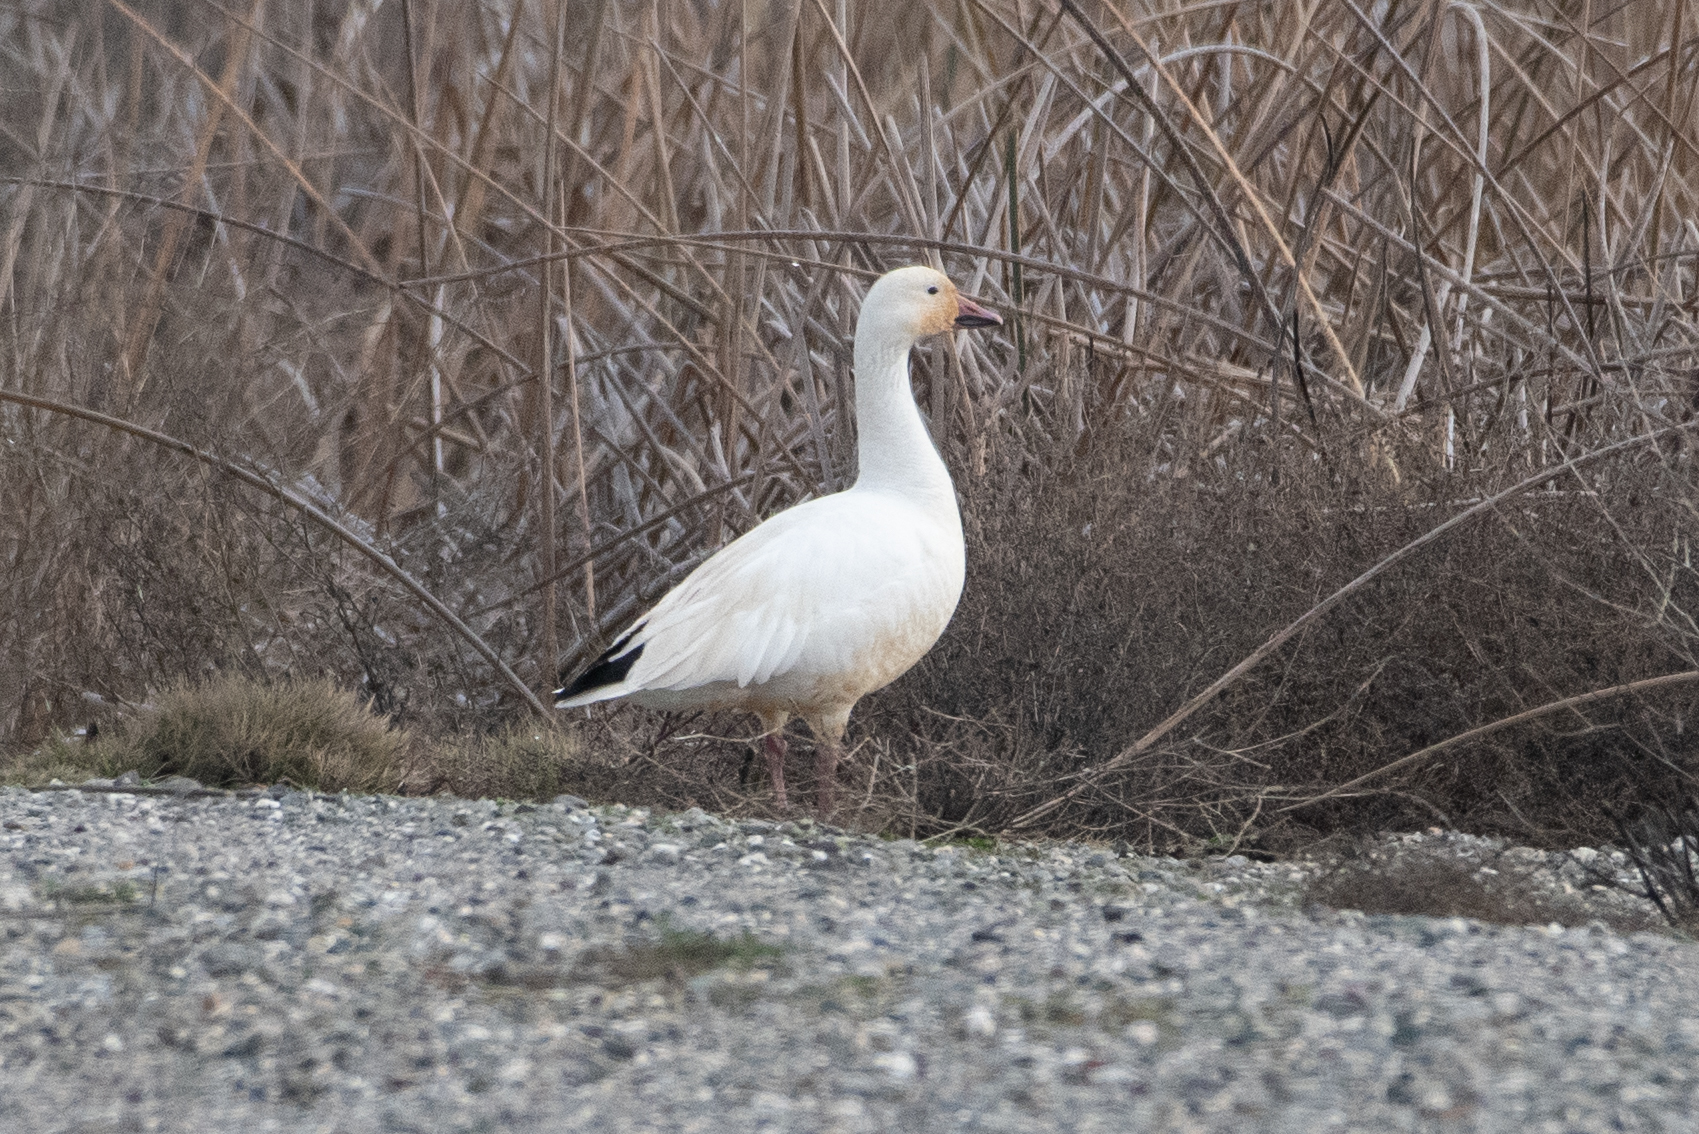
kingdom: Animalia
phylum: Chordata
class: Aves
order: Anseriformes
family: Anatidae
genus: Anser
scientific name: Anser caerulescens
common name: Snow goose
